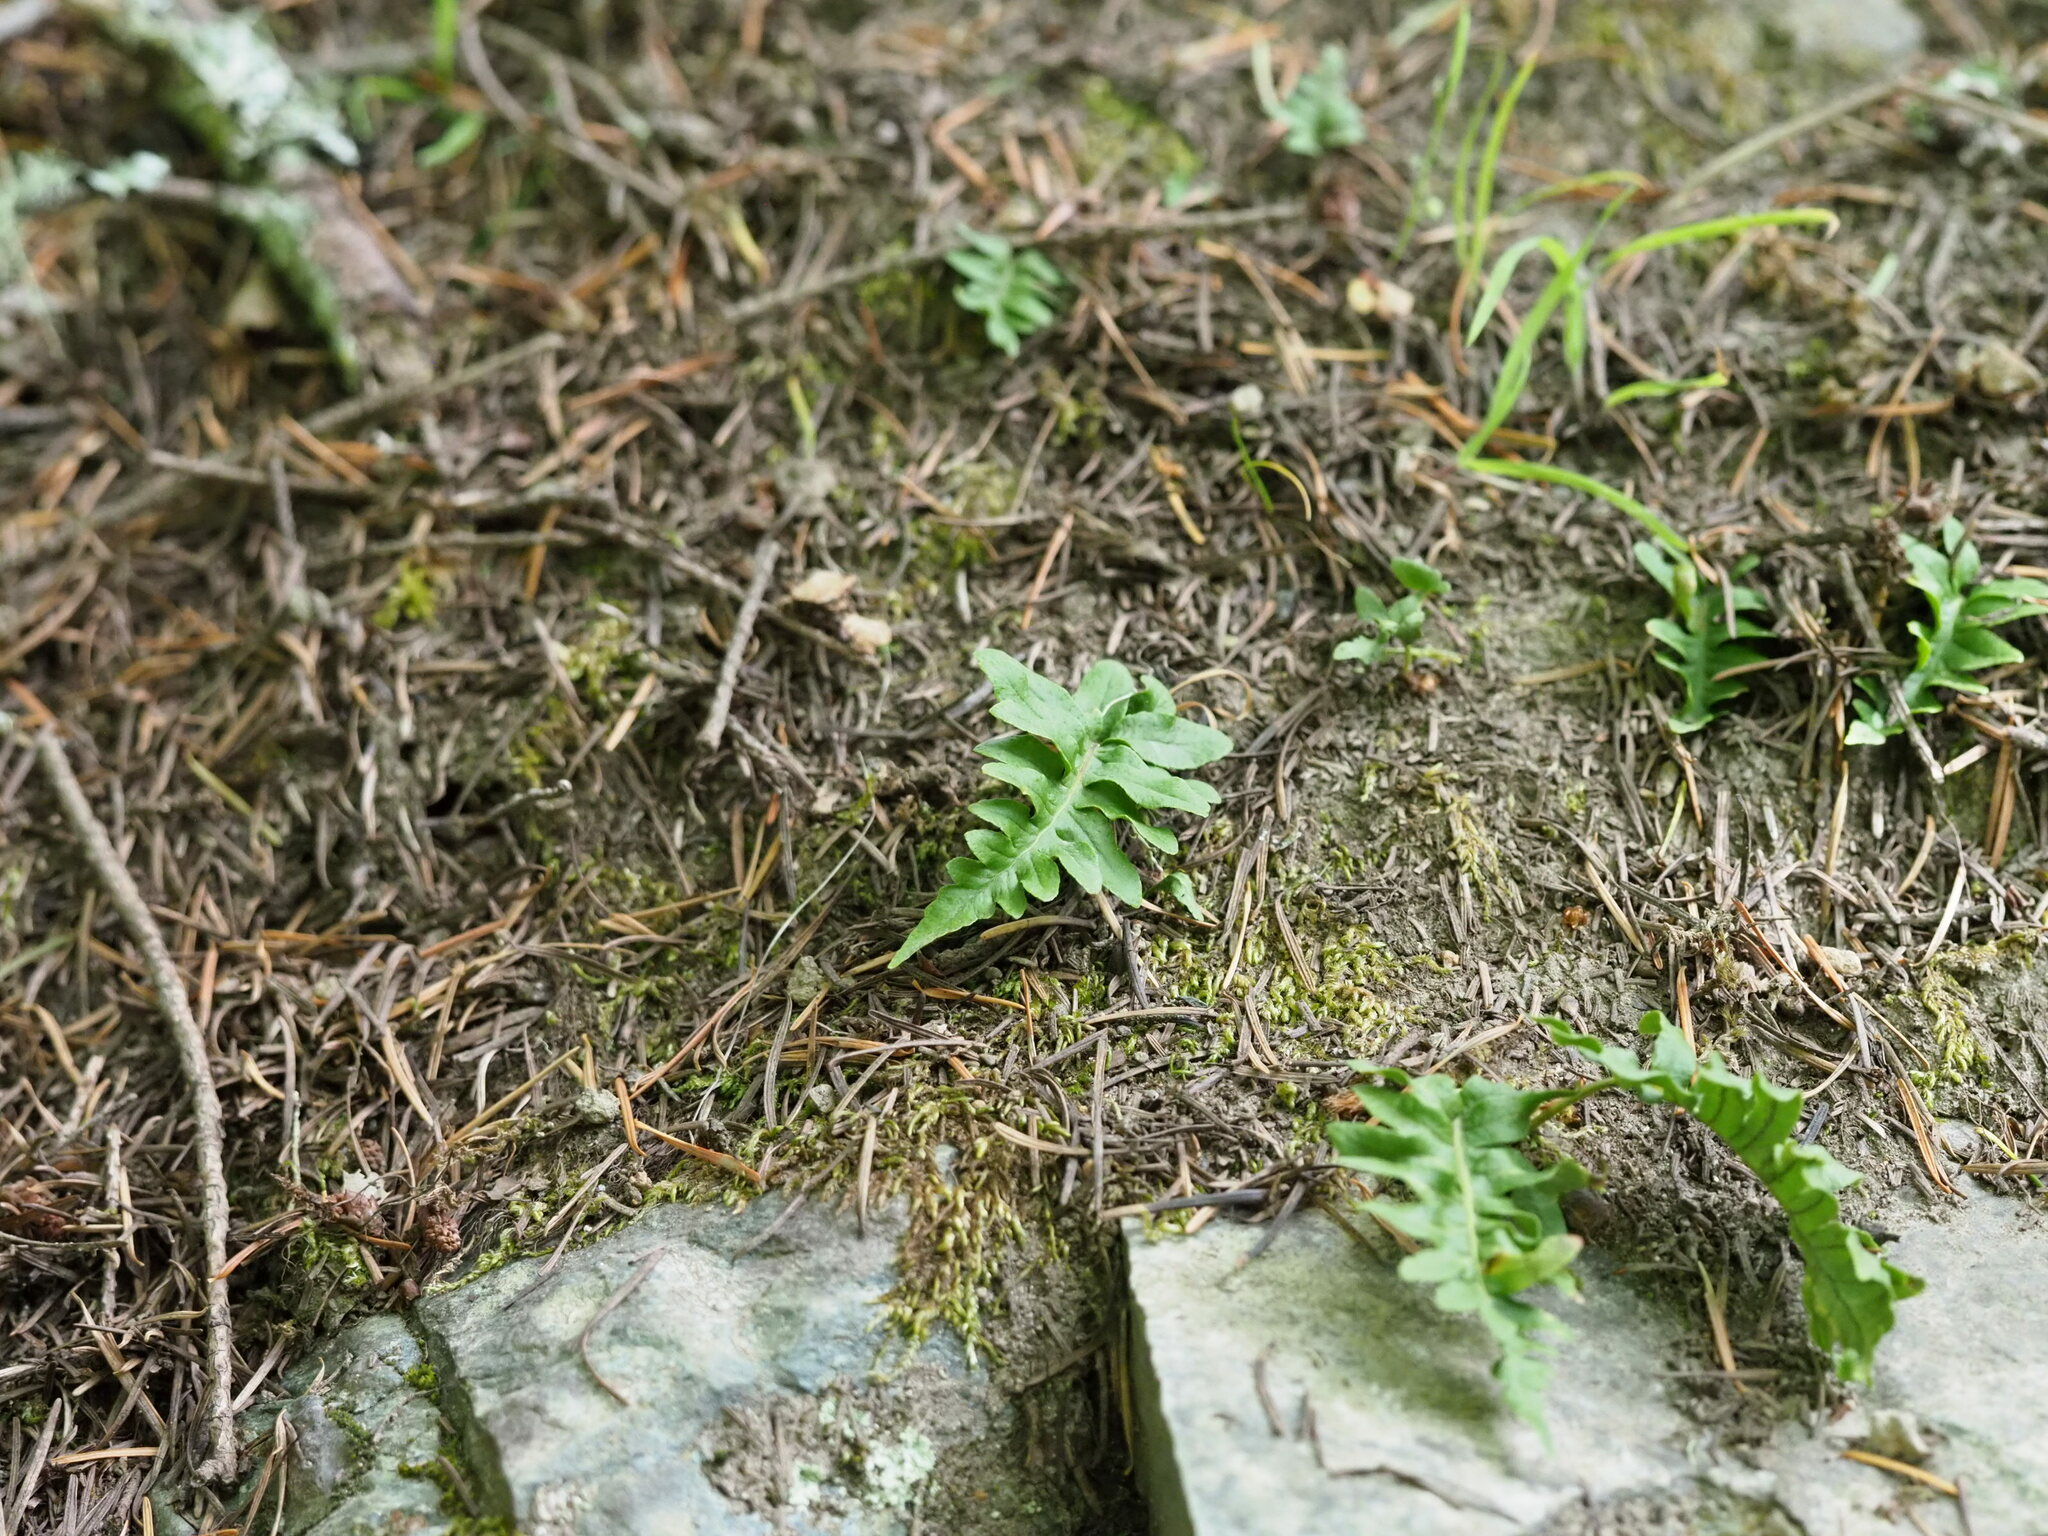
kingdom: Plantae
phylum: Tracheophyta
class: Polypodiopsida
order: Polypodiales
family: Polypodiaceae
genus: Polypodium
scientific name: Polypodium glycyrrhiza
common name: Licorice fern
